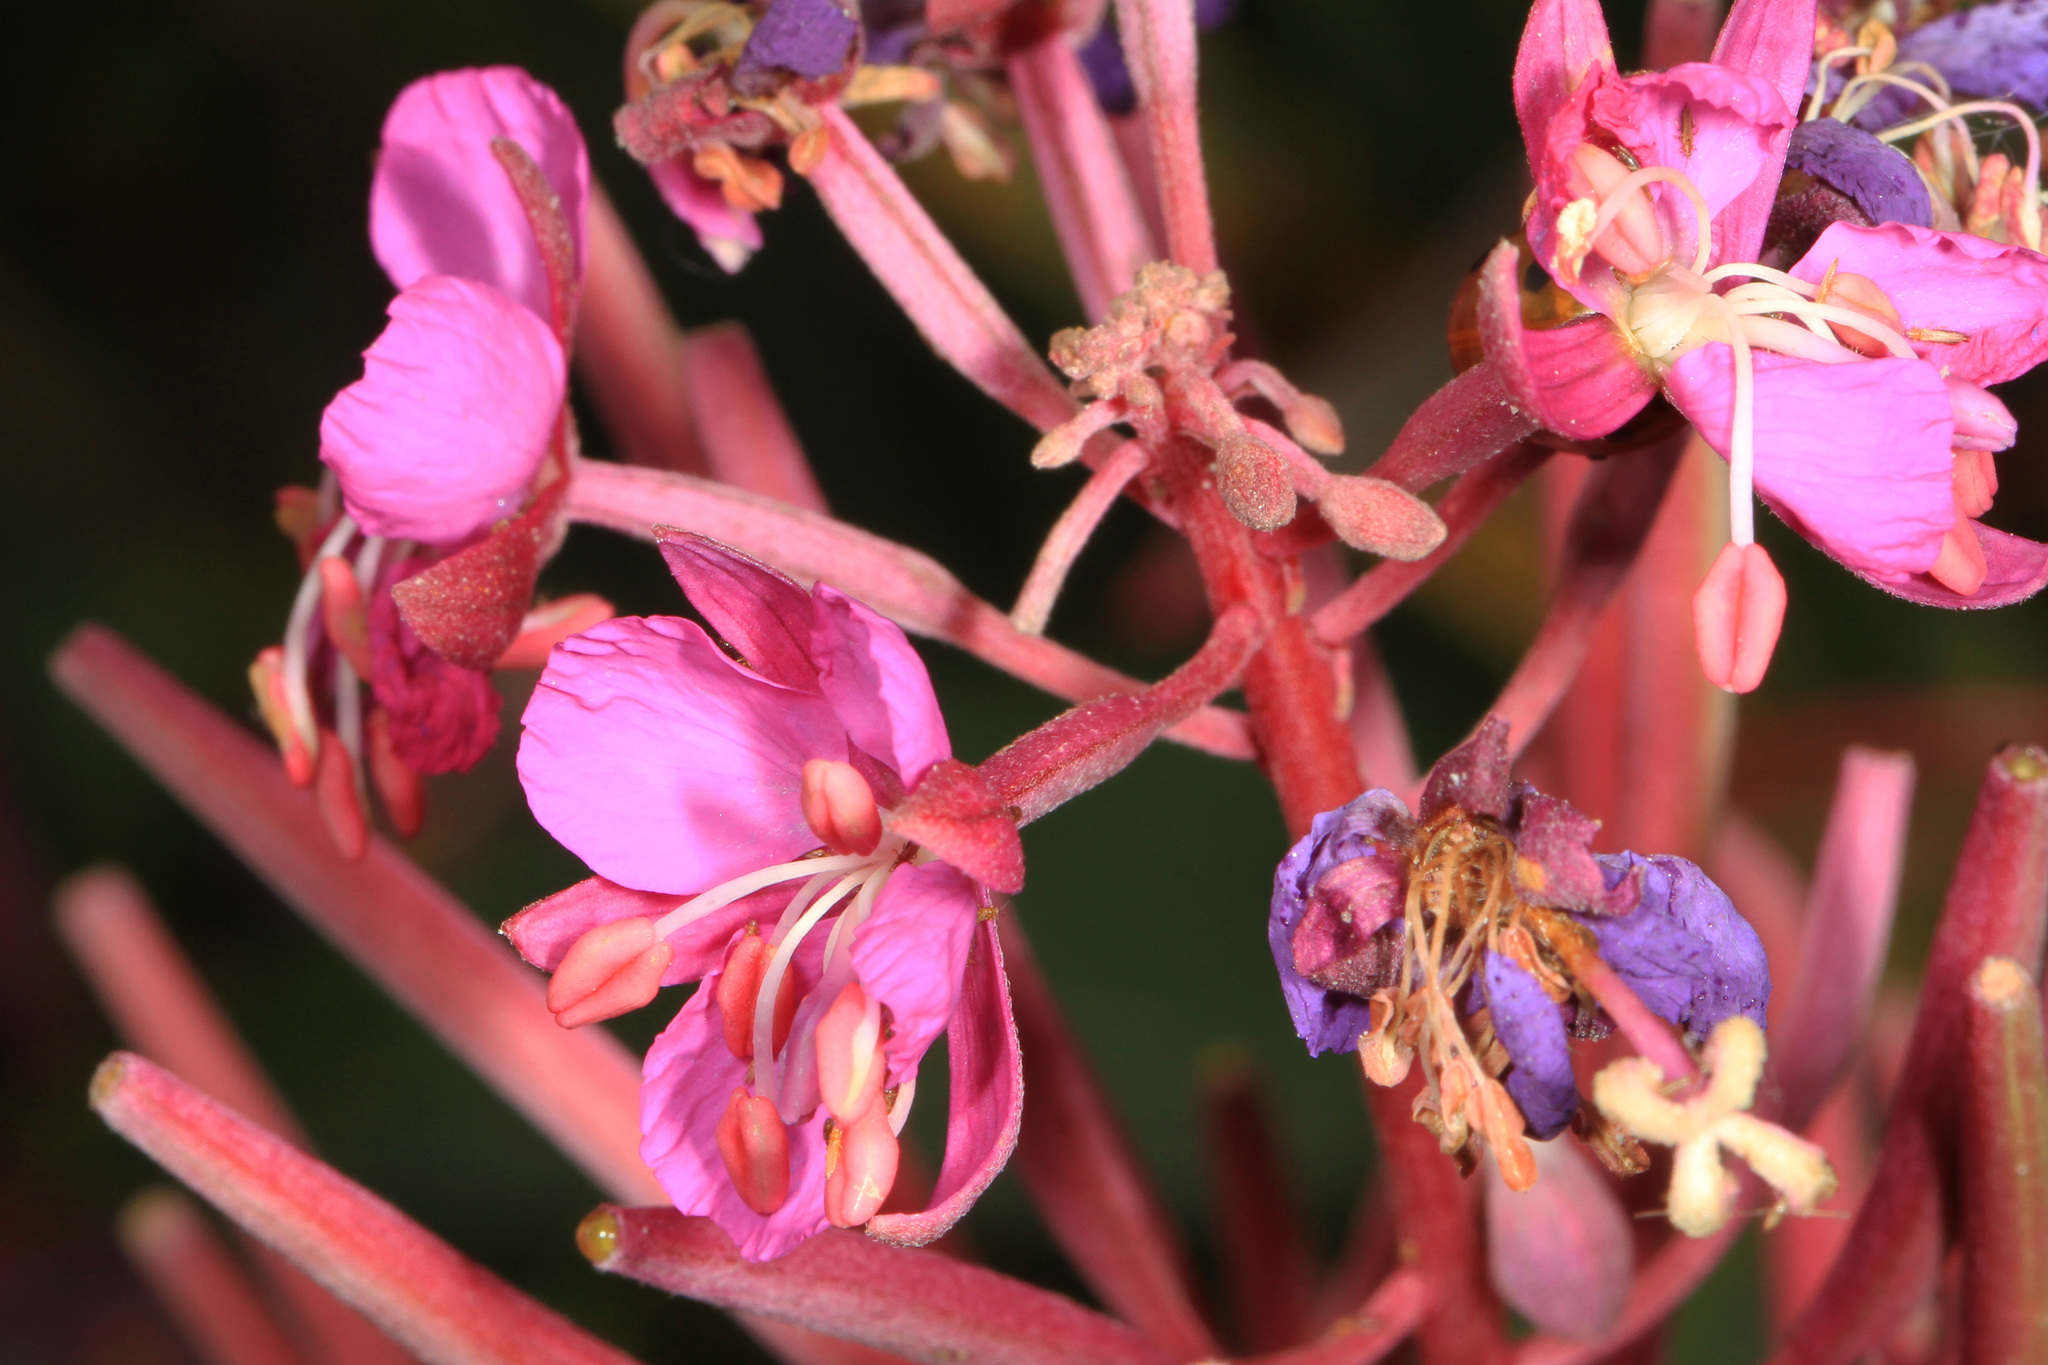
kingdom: Plantae
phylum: Tracheophyta
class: Magnoliopsida
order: Myrtales
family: Onagraceae
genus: Chamaenerion
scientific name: Chamaenerion angustifolium
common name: Fireweed
